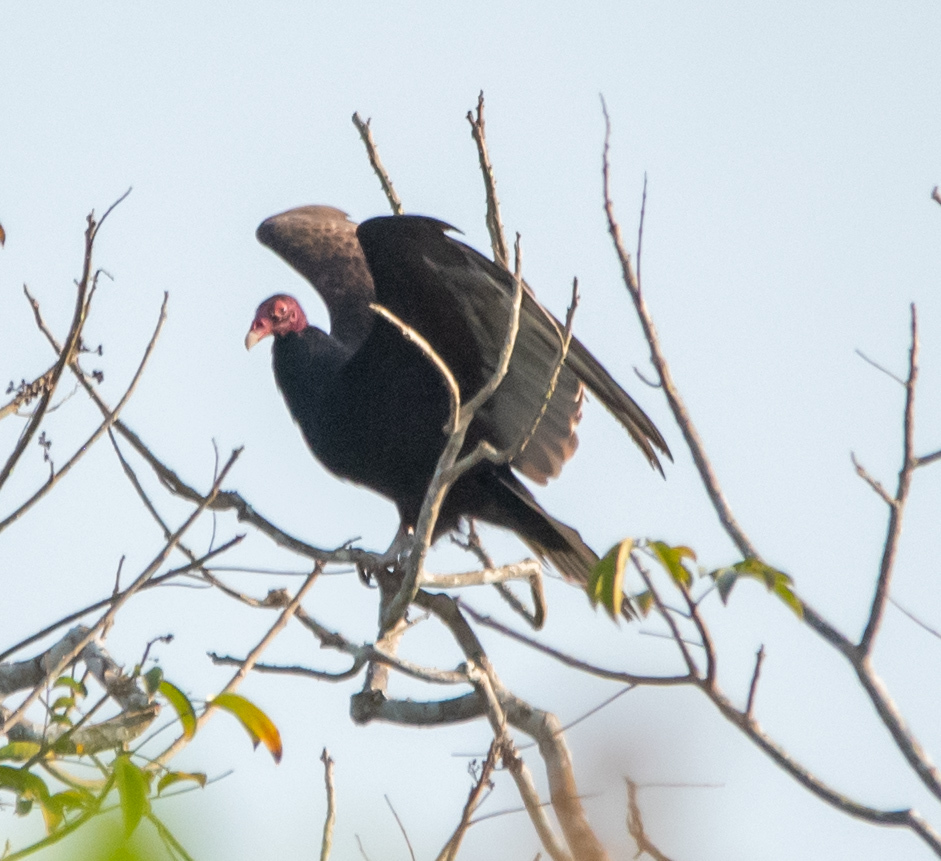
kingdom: Animalia
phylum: Chordata
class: Aves
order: Accipitriformes
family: Cathartidae
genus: Cathartes
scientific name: Cathartes aura
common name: Turkey vulture
